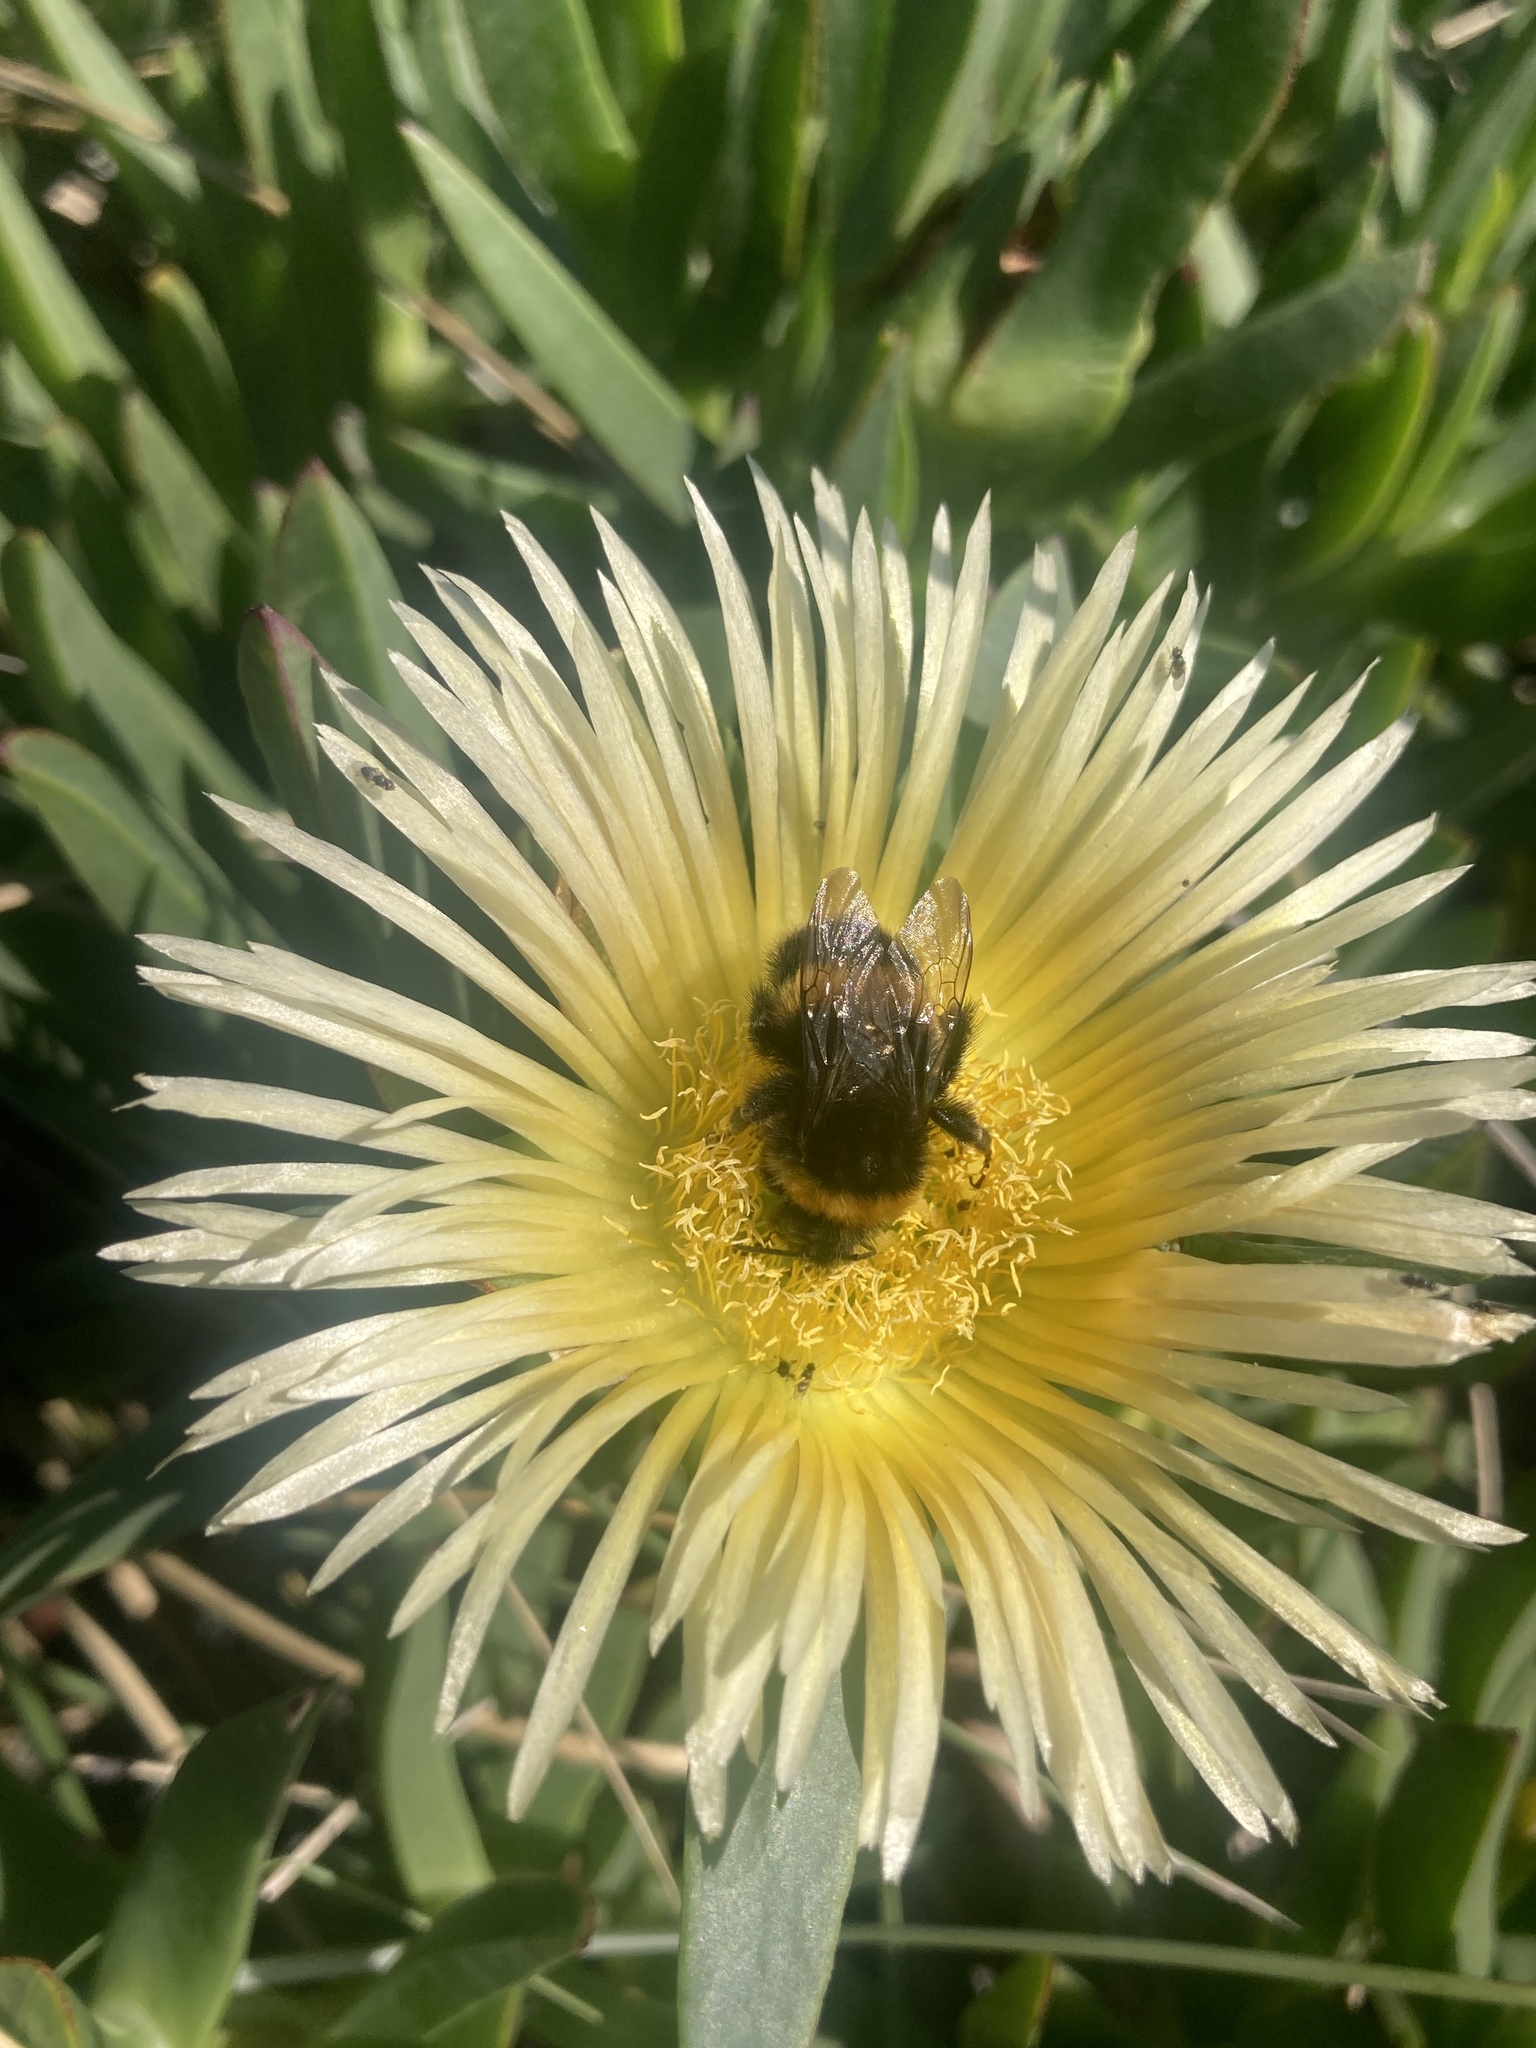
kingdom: Animalia
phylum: Arthropoda
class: Insecta
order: Hymenoptera
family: Apidae
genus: Bombus
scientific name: Bombus terrestris
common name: Buff-tailed bumblebee
